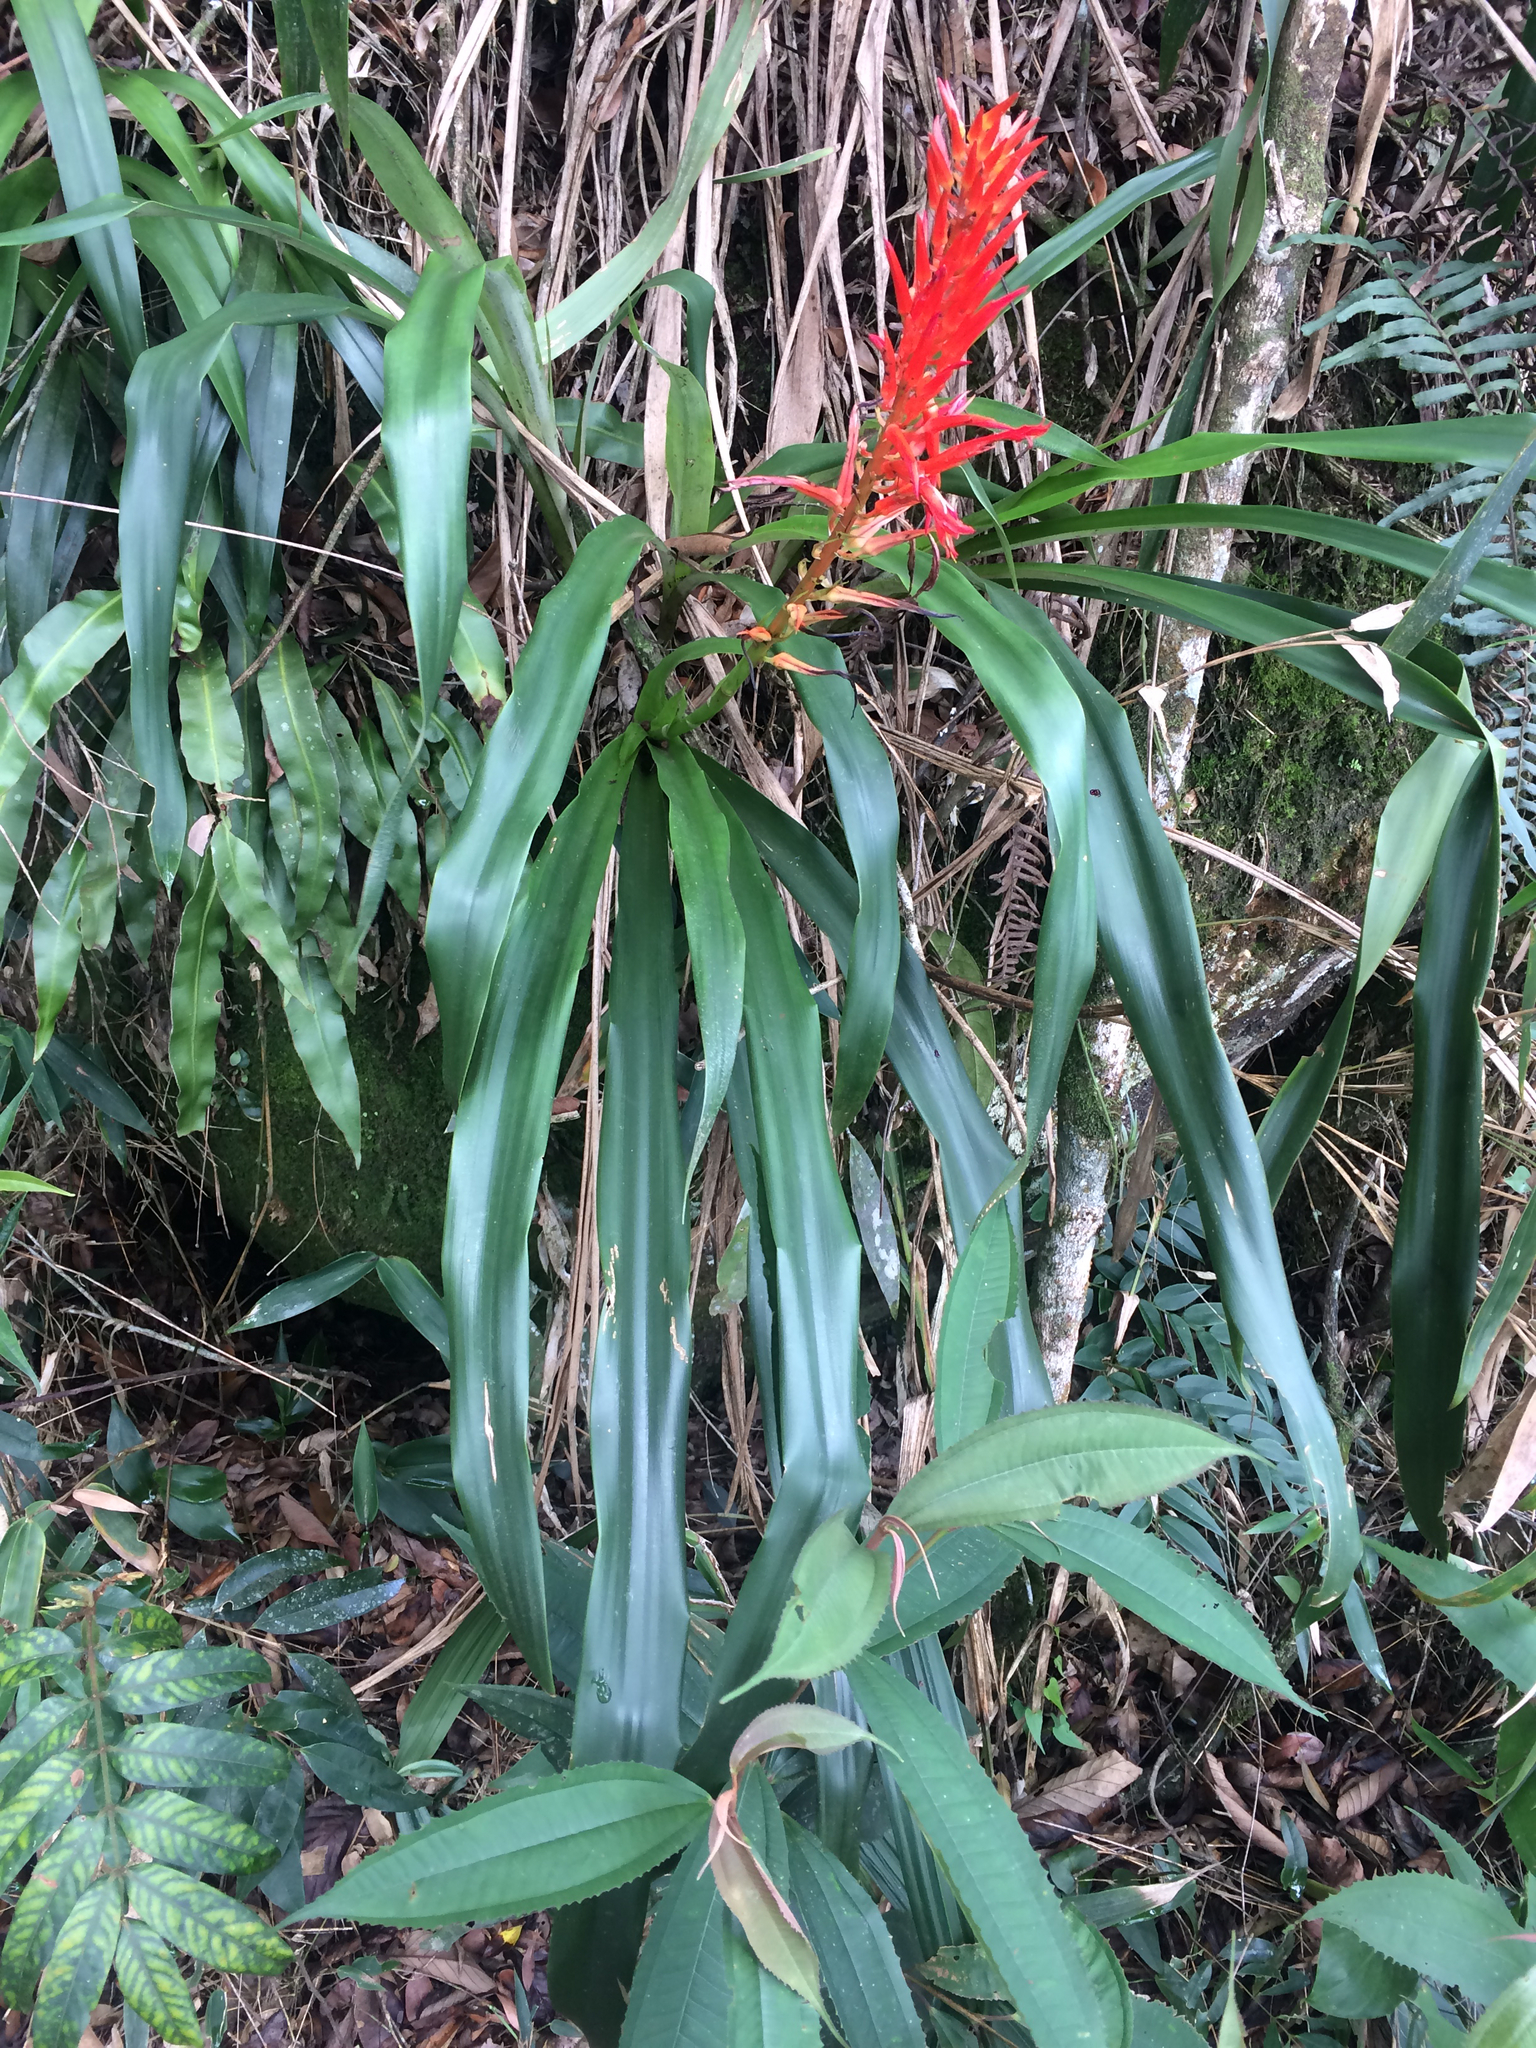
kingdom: Plantae
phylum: Tracheophyta
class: Liliopsida
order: Poales
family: Bromeliaceae
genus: Pitcairnia
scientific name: Pitcairnia flammea
